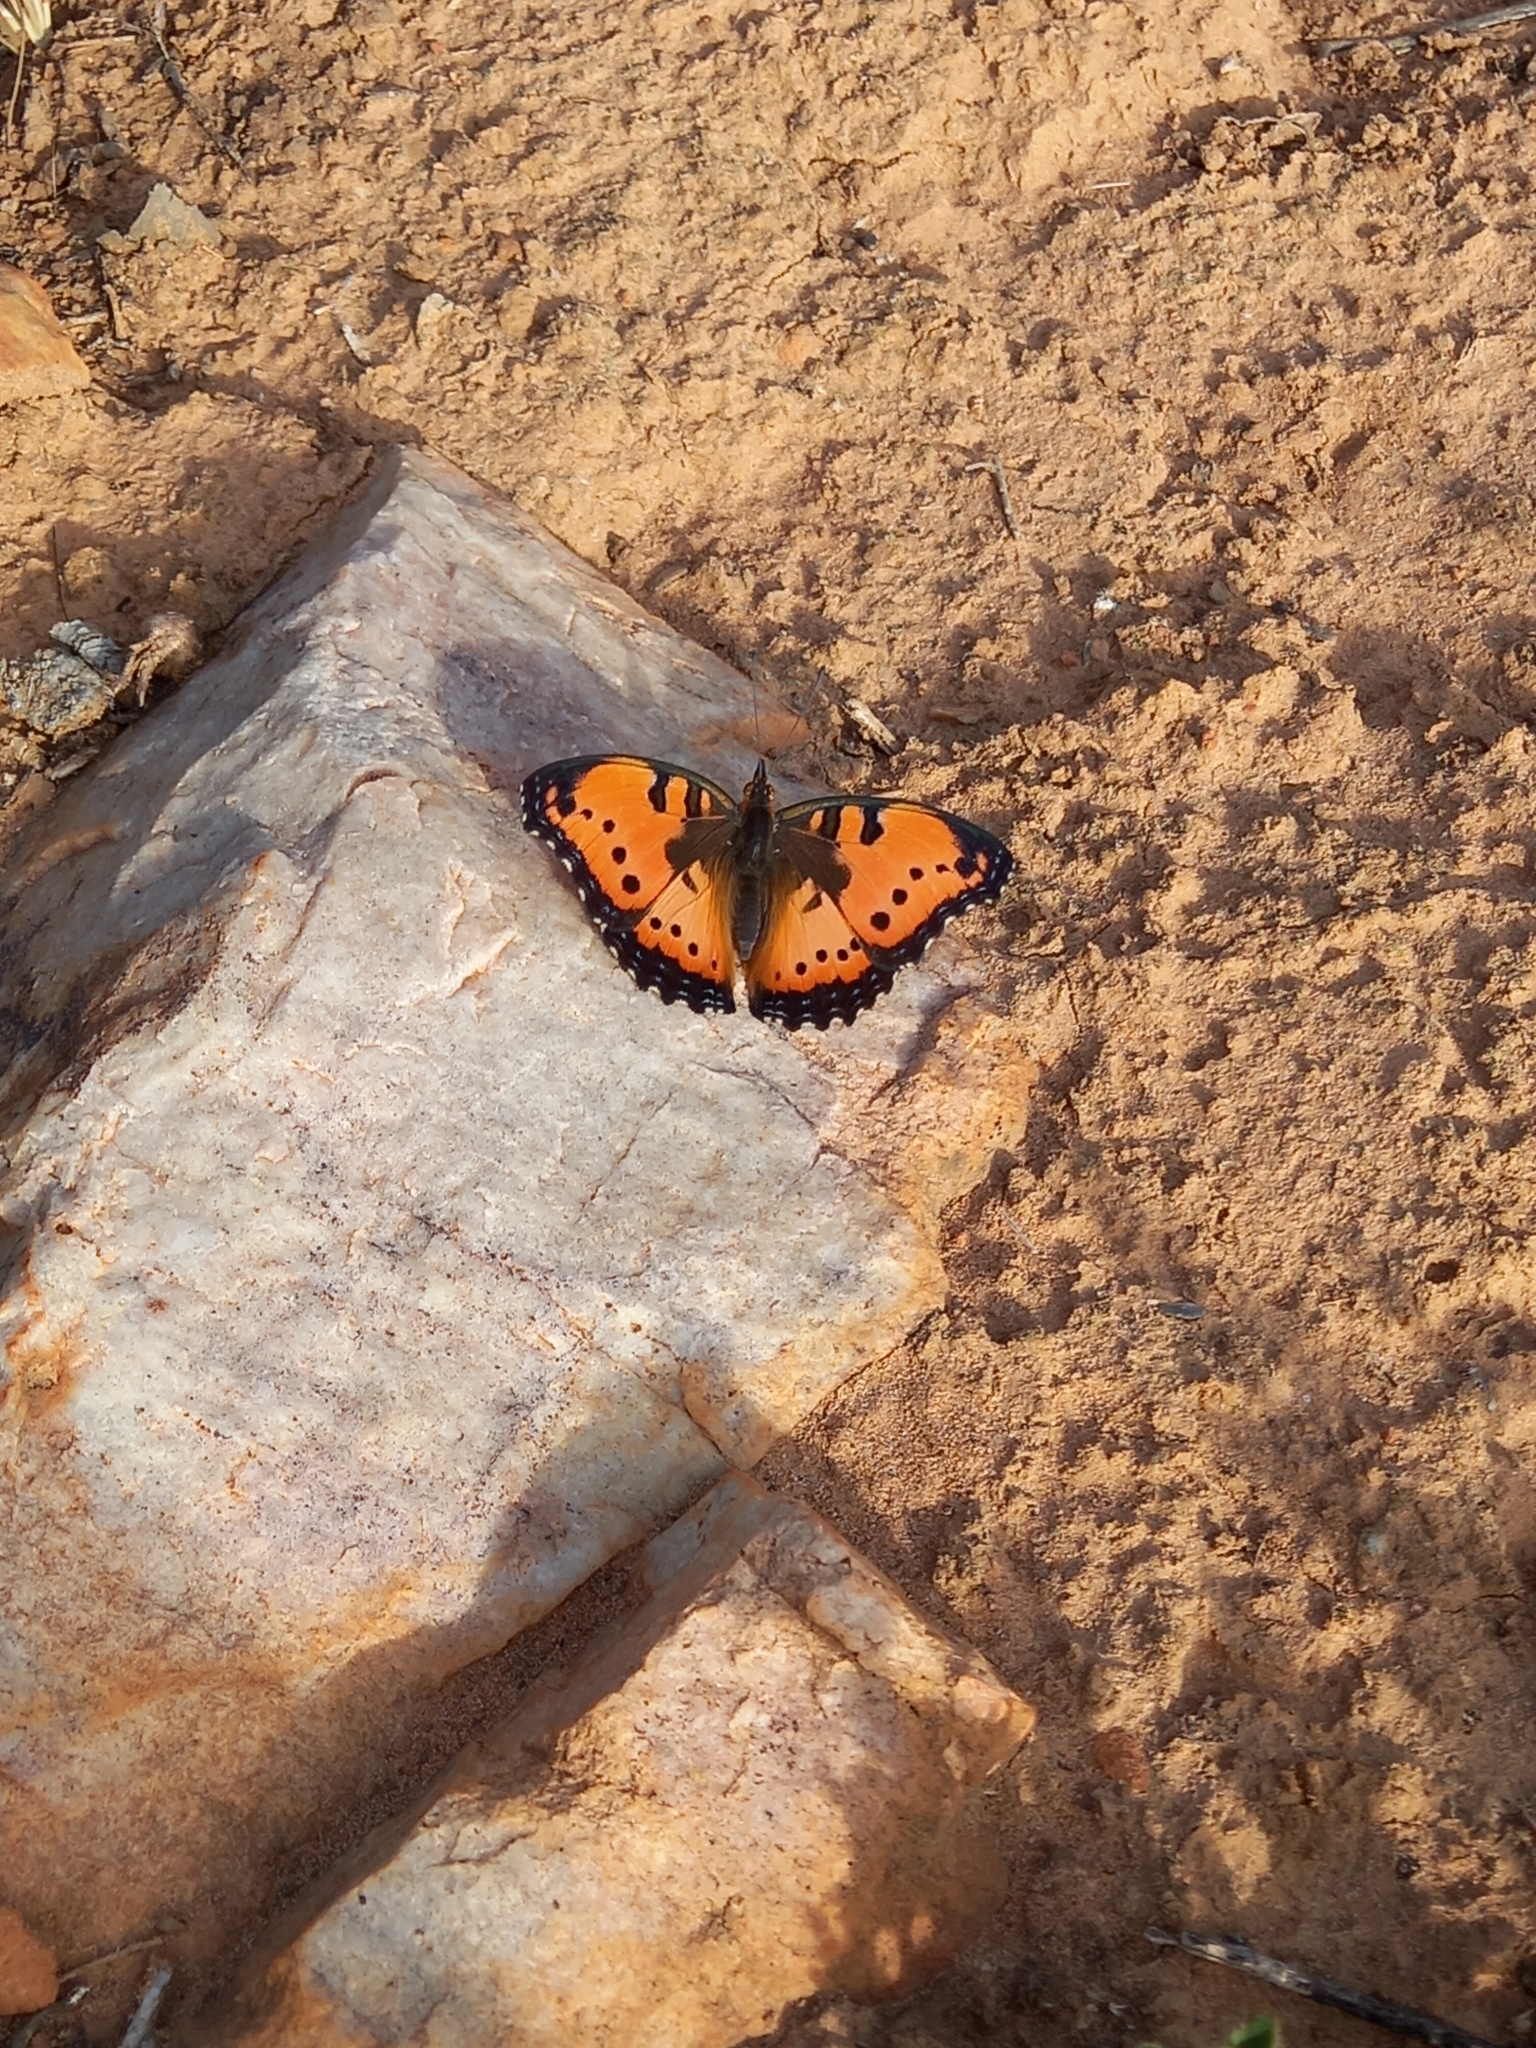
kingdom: Animalia
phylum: Arthropoda
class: Insecta
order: Lepidoptera
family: Nymphalidae
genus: Precis
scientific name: Precis octavia
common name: Gaudy commodore
